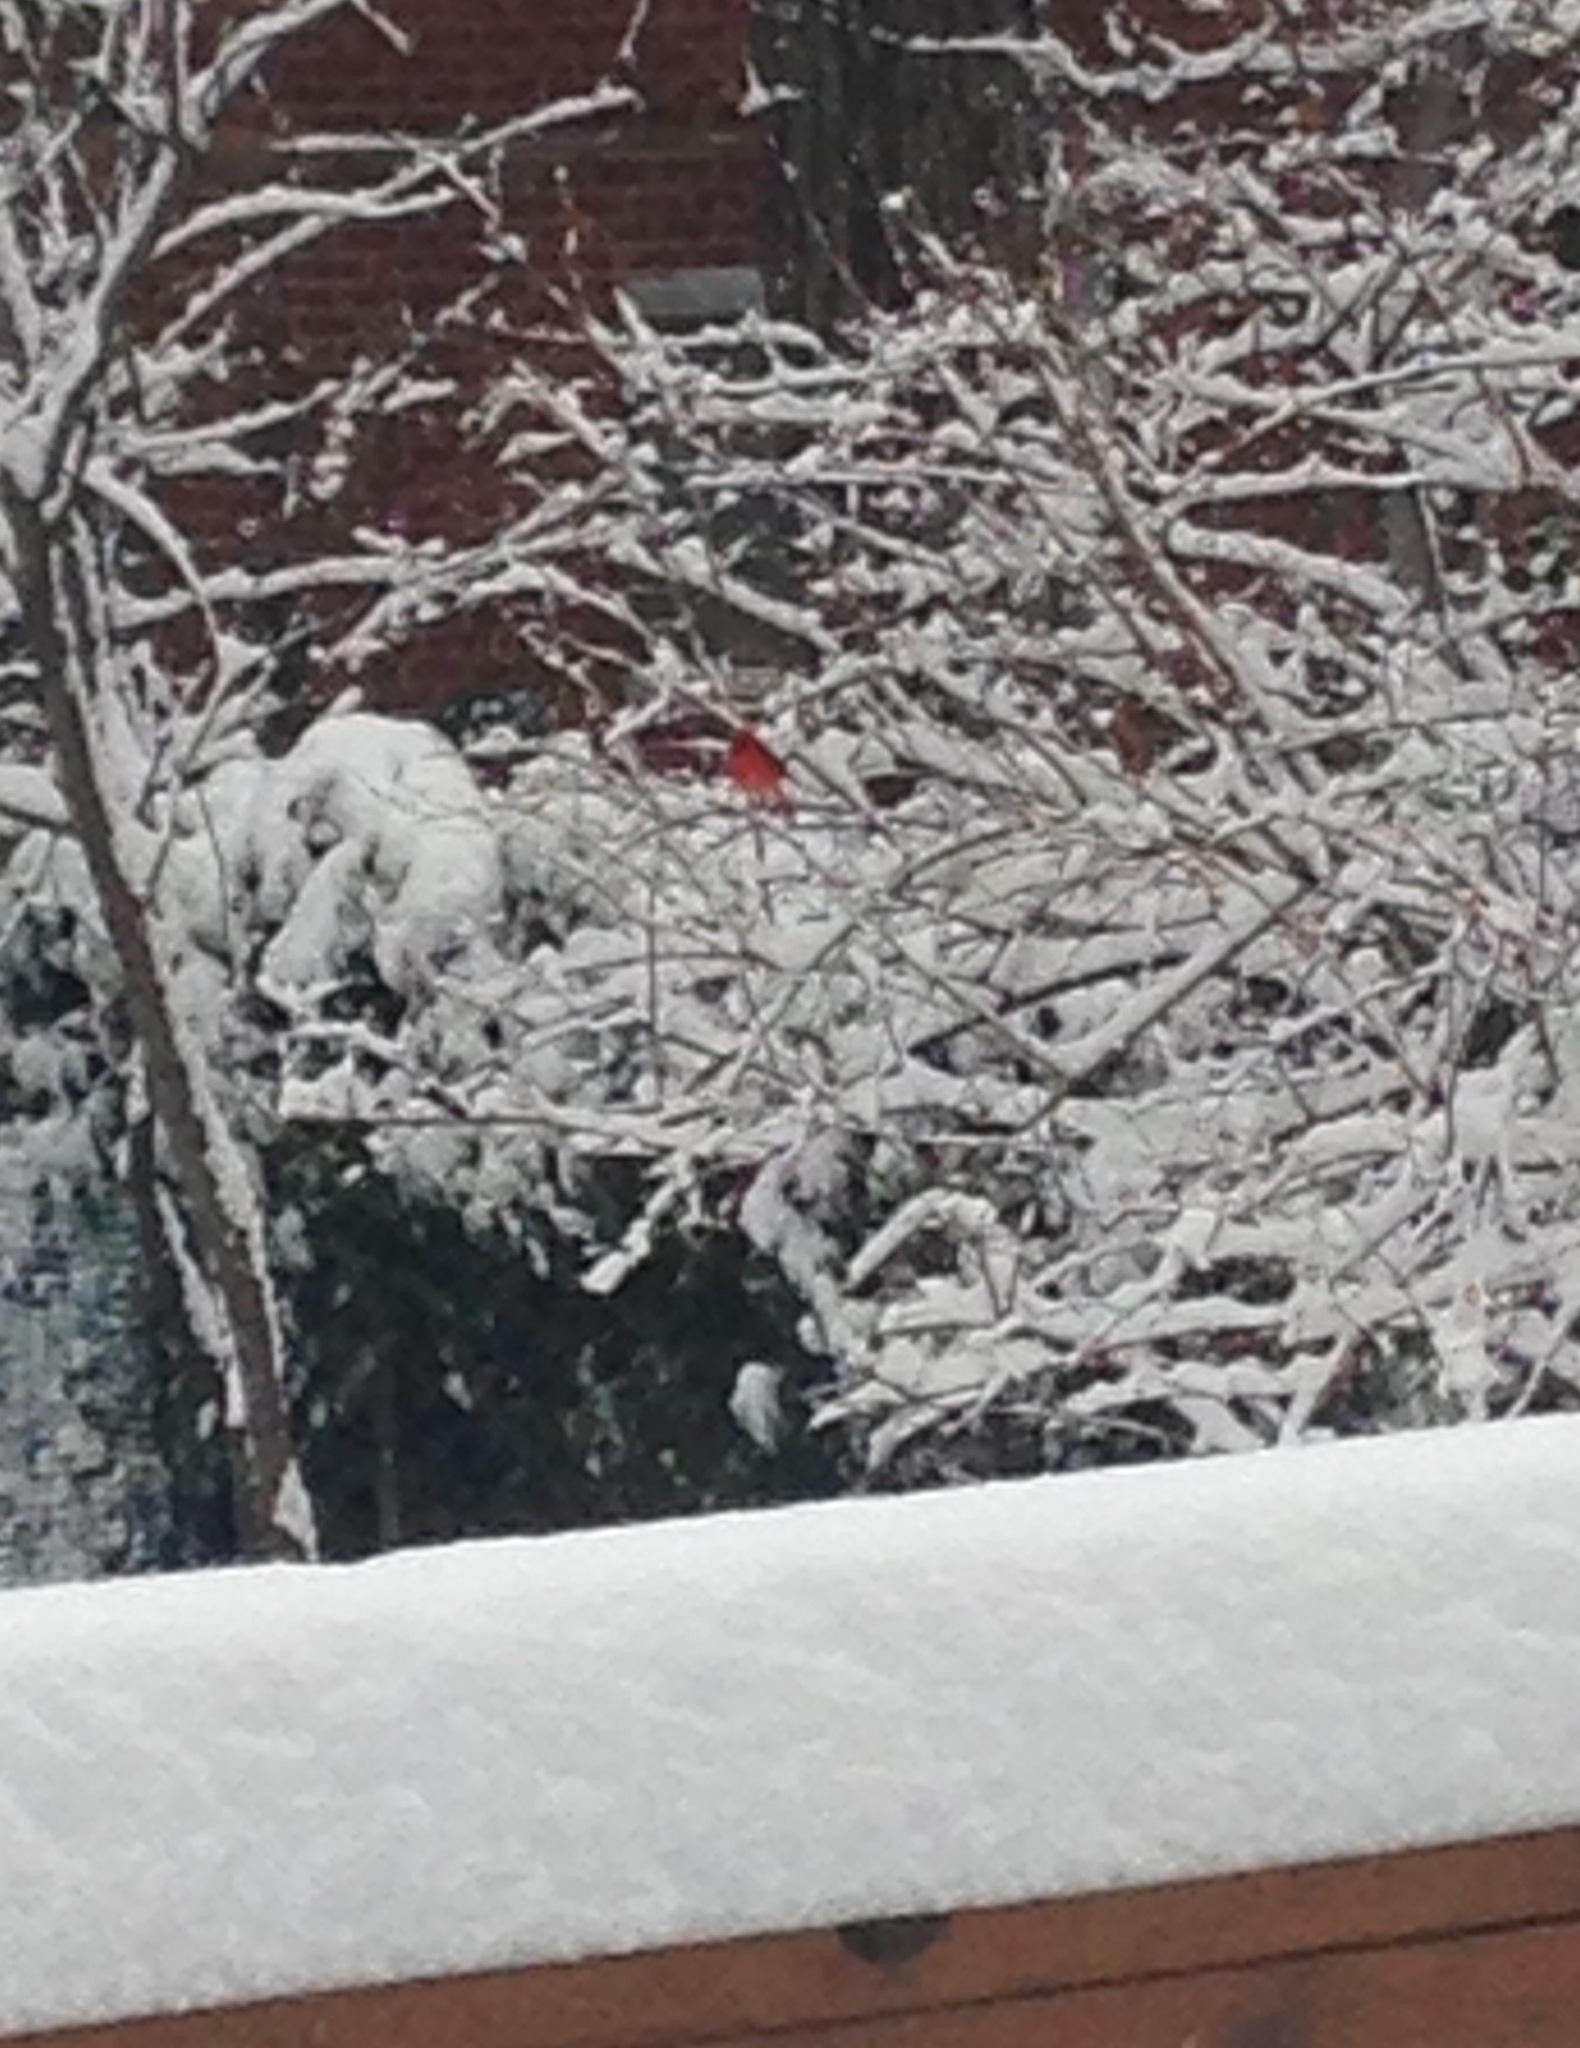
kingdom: Animalia
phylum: Chordata
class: Aves
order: Passeriformes
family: Cardinalidae
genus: Cardinalis
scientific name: Cardinalis cardinalis
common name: Northern cardinal
